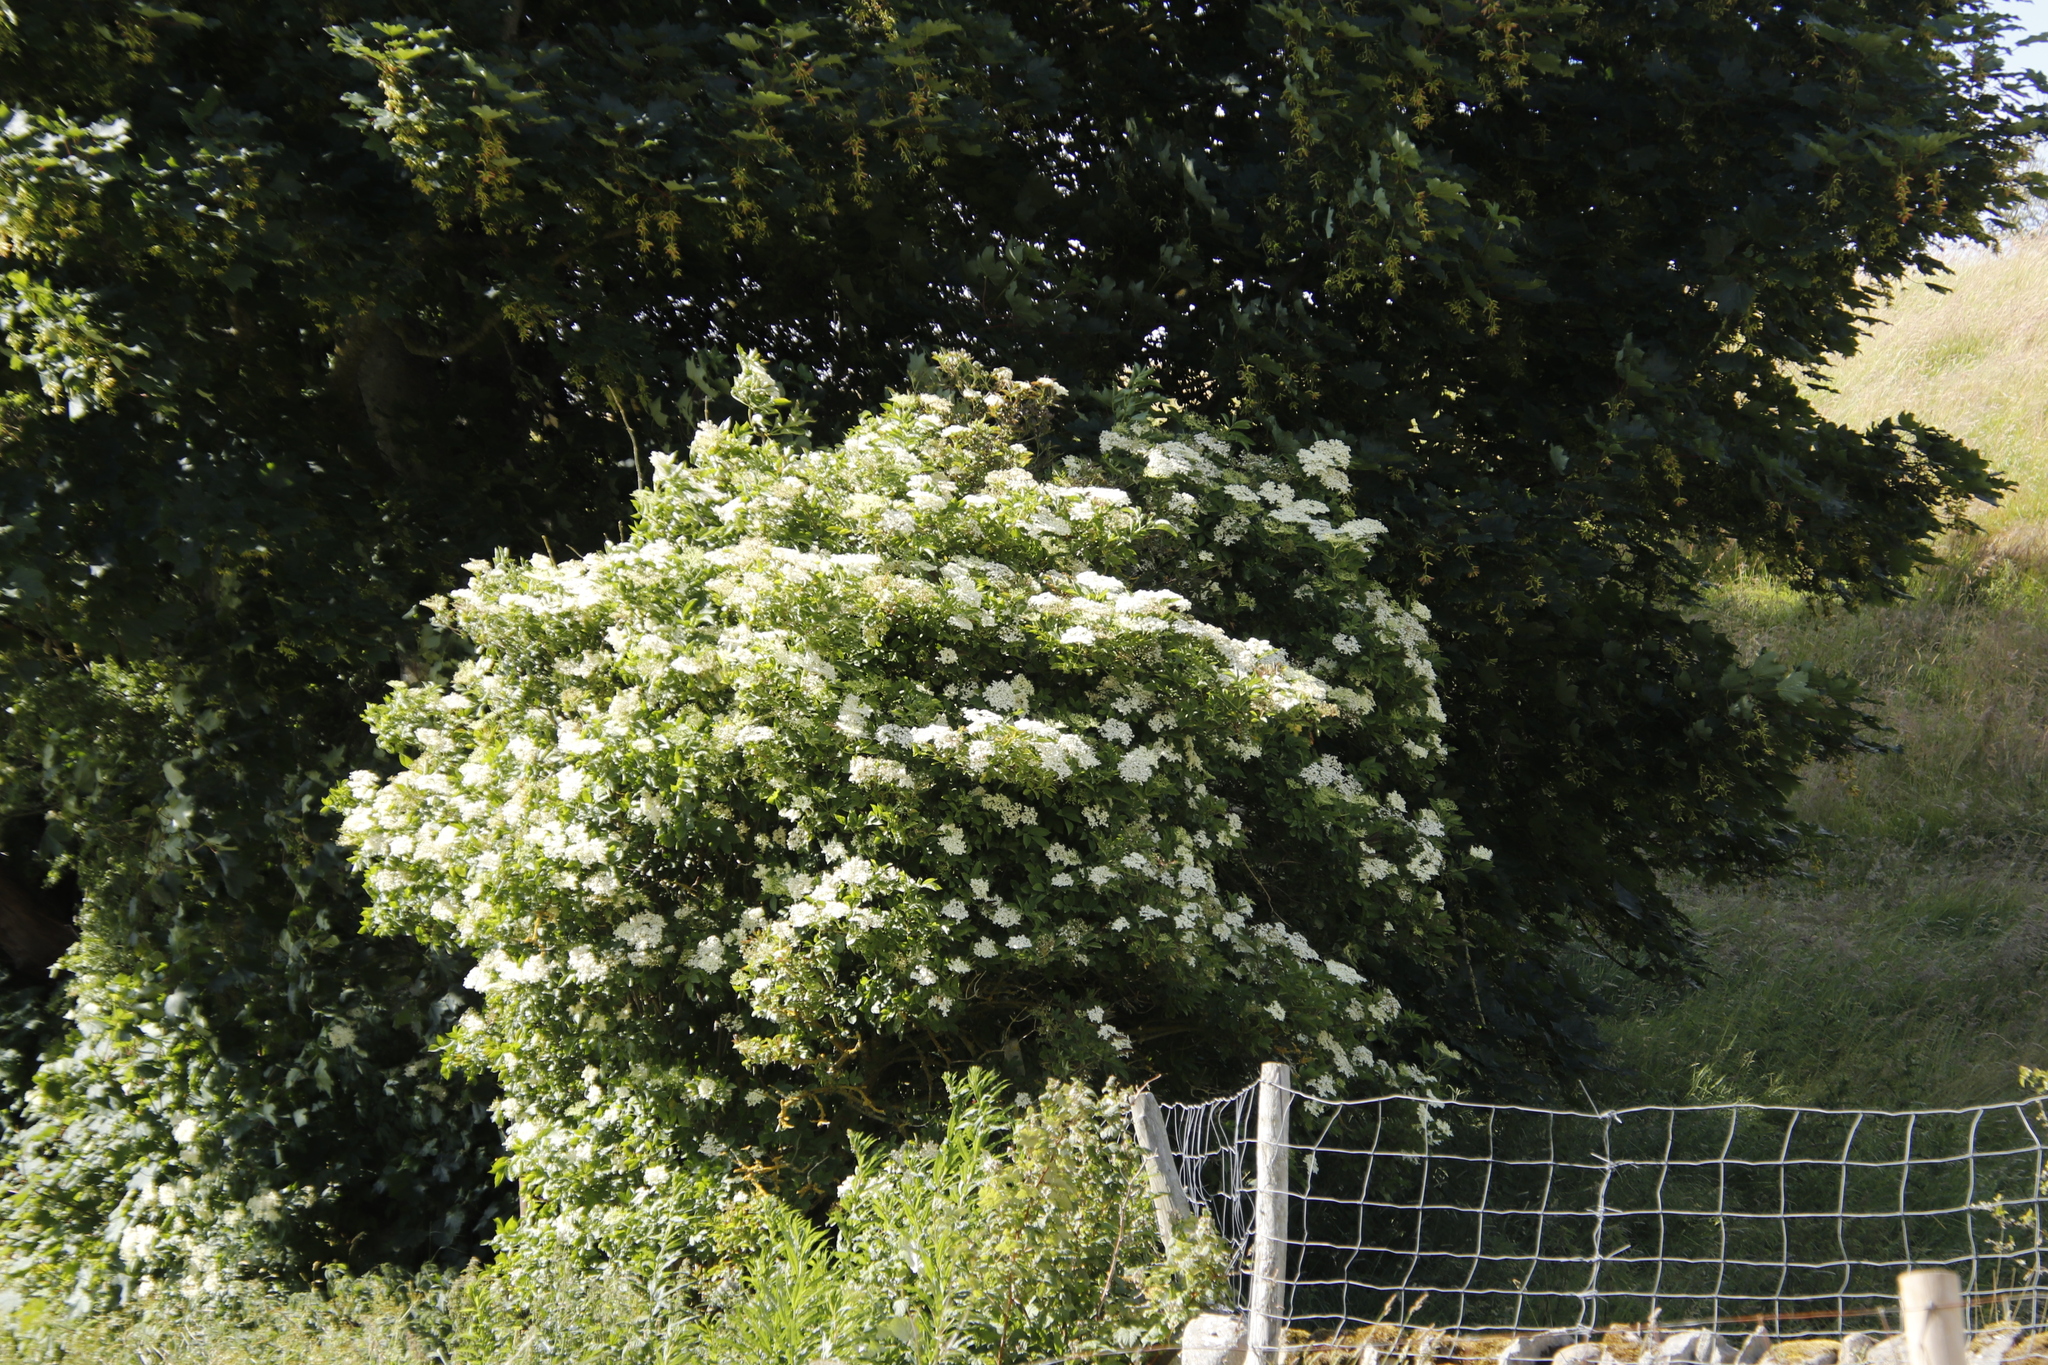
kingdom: Plantae
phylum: Tracheophyta
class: Magnoliopsida
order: Dipsacales
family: Viburnaceae
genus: Sambucus
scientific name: Sambucus nigra
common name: Elder
